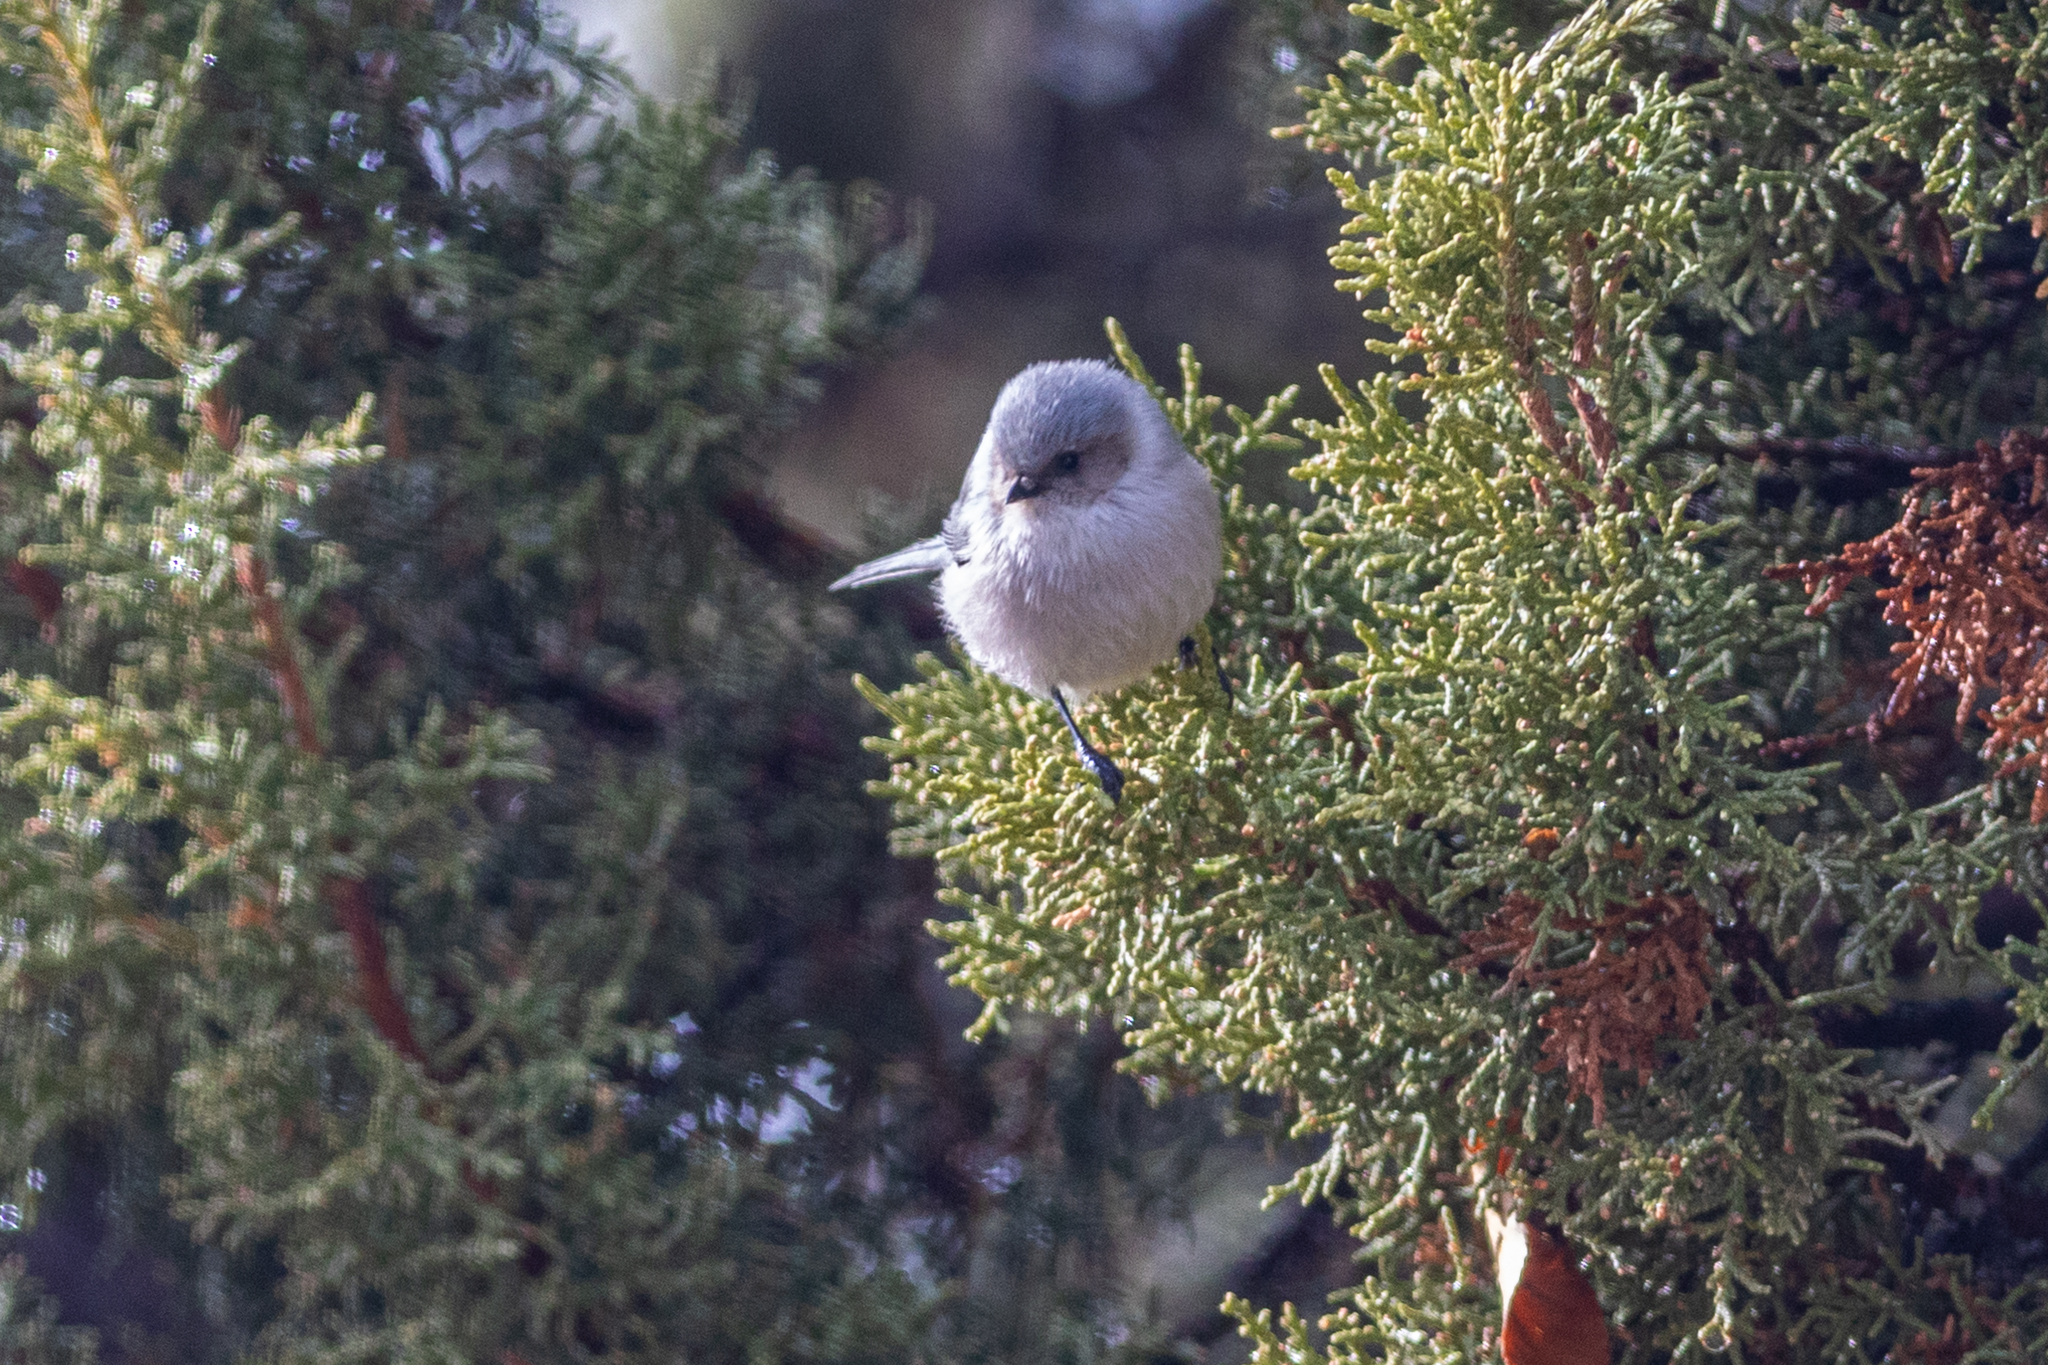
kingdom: Animalia
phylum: Chordata
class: Aves
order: Passeriformes
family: Aegithalidae
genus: Psaltriparus
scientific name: Psaltriparus minimus
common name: American bushtit
